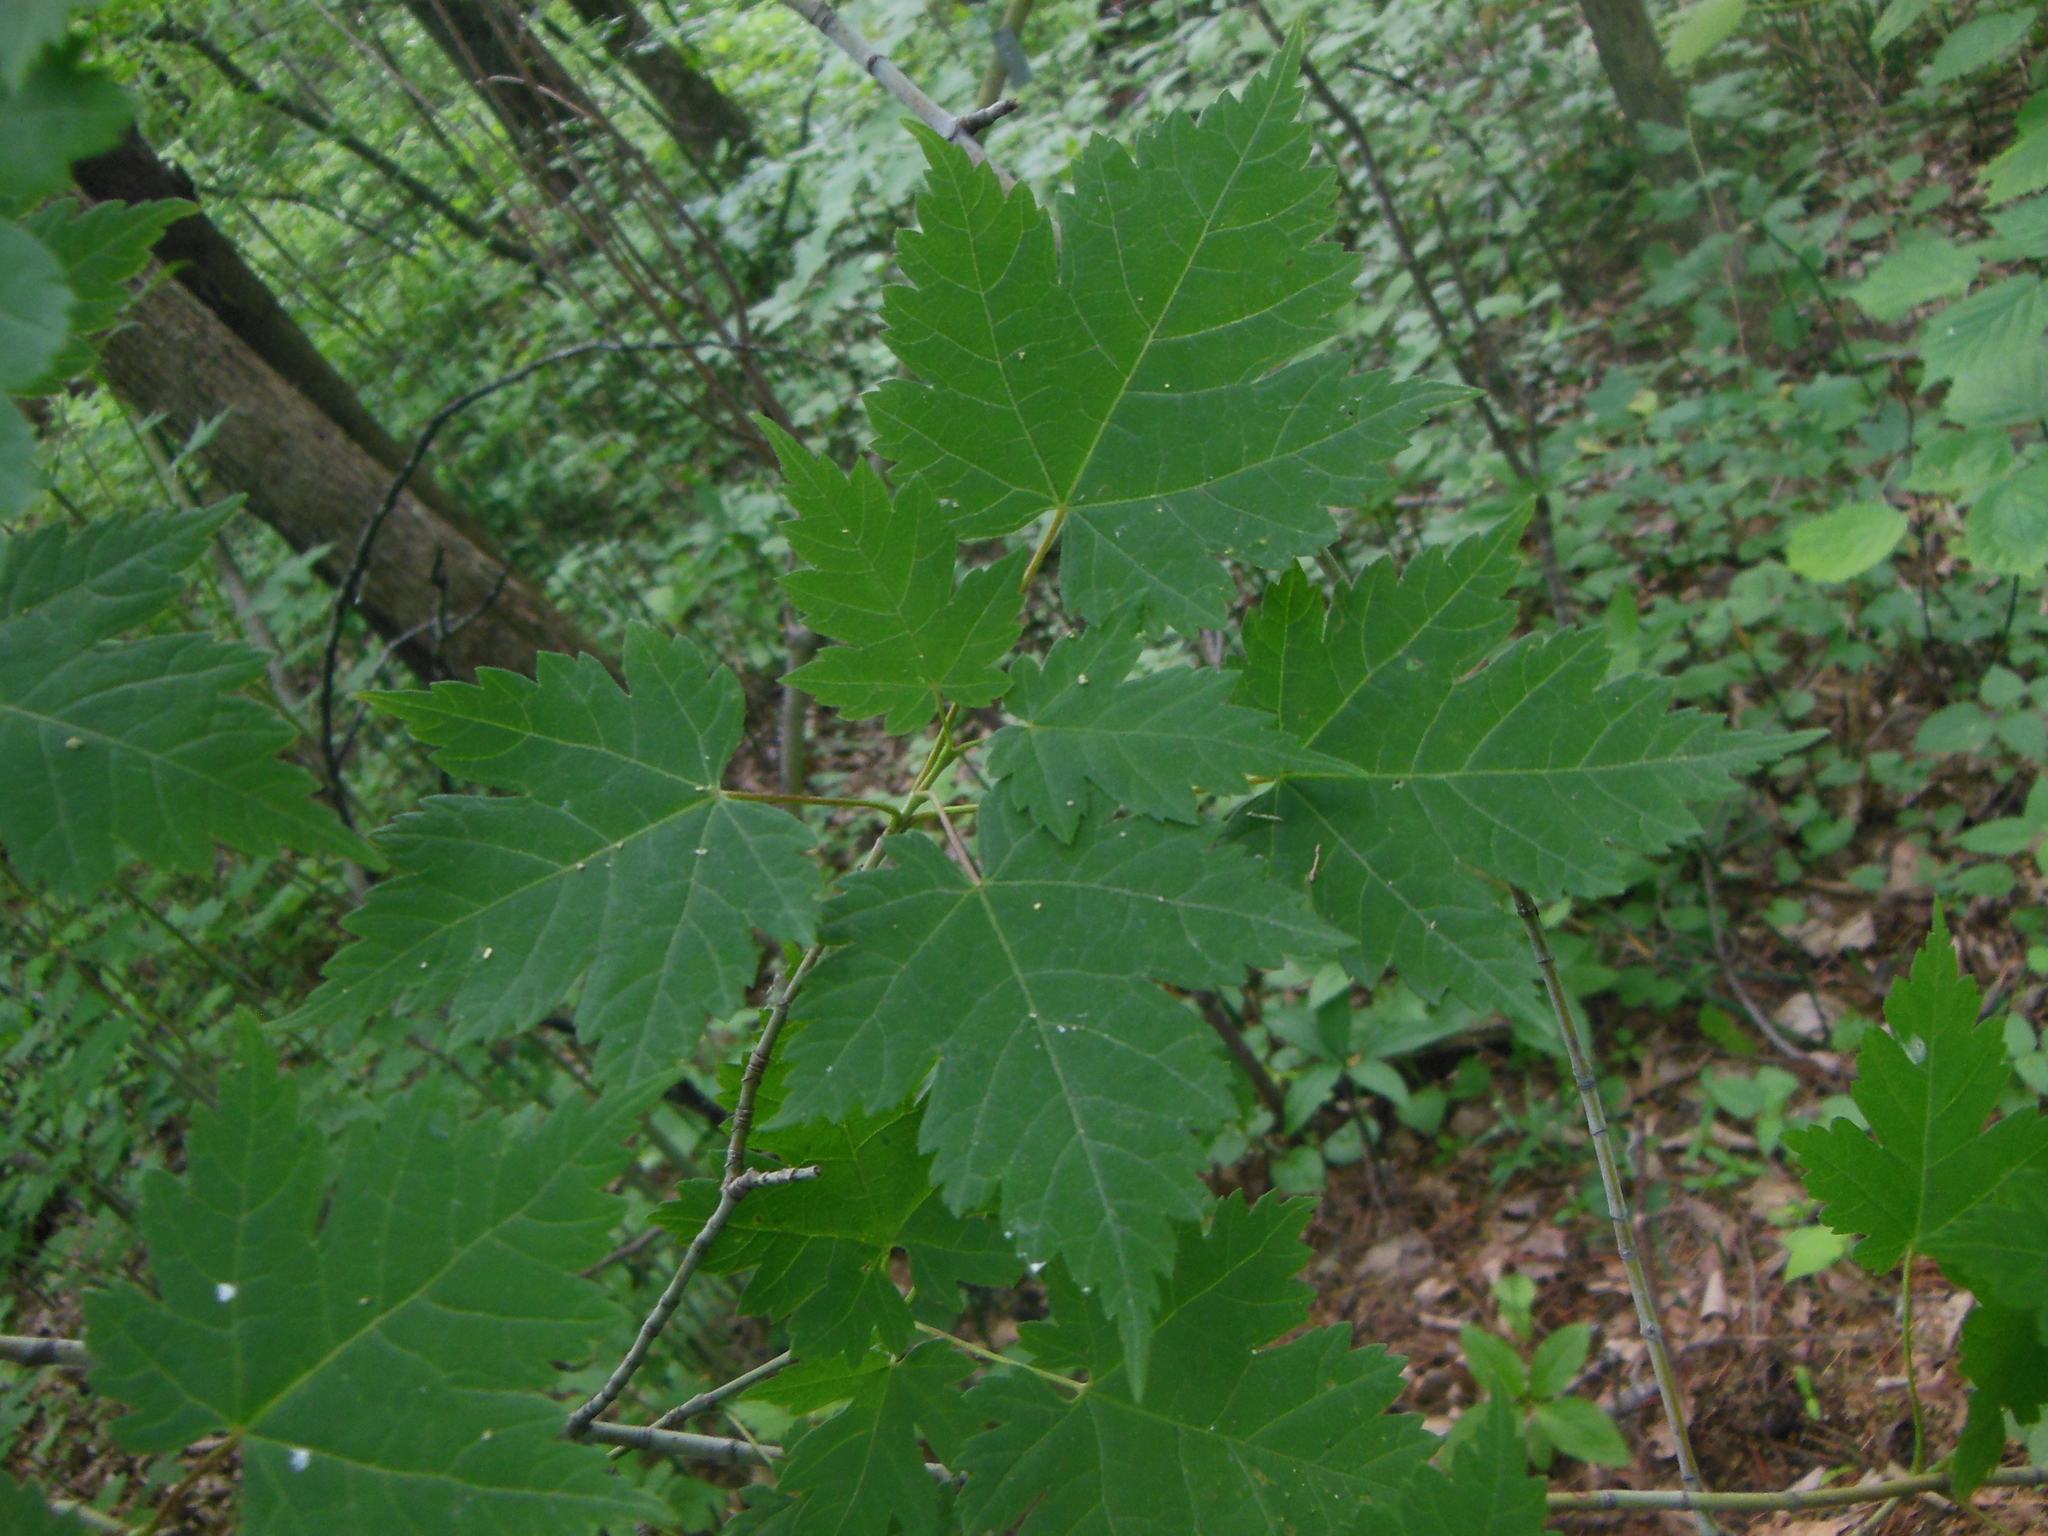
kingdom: Plantae
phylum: Tracheophyta
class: Magnoliopsida
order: Sapindales
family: Sapindaceae
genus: Acer
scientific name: Acer ukurunduense
